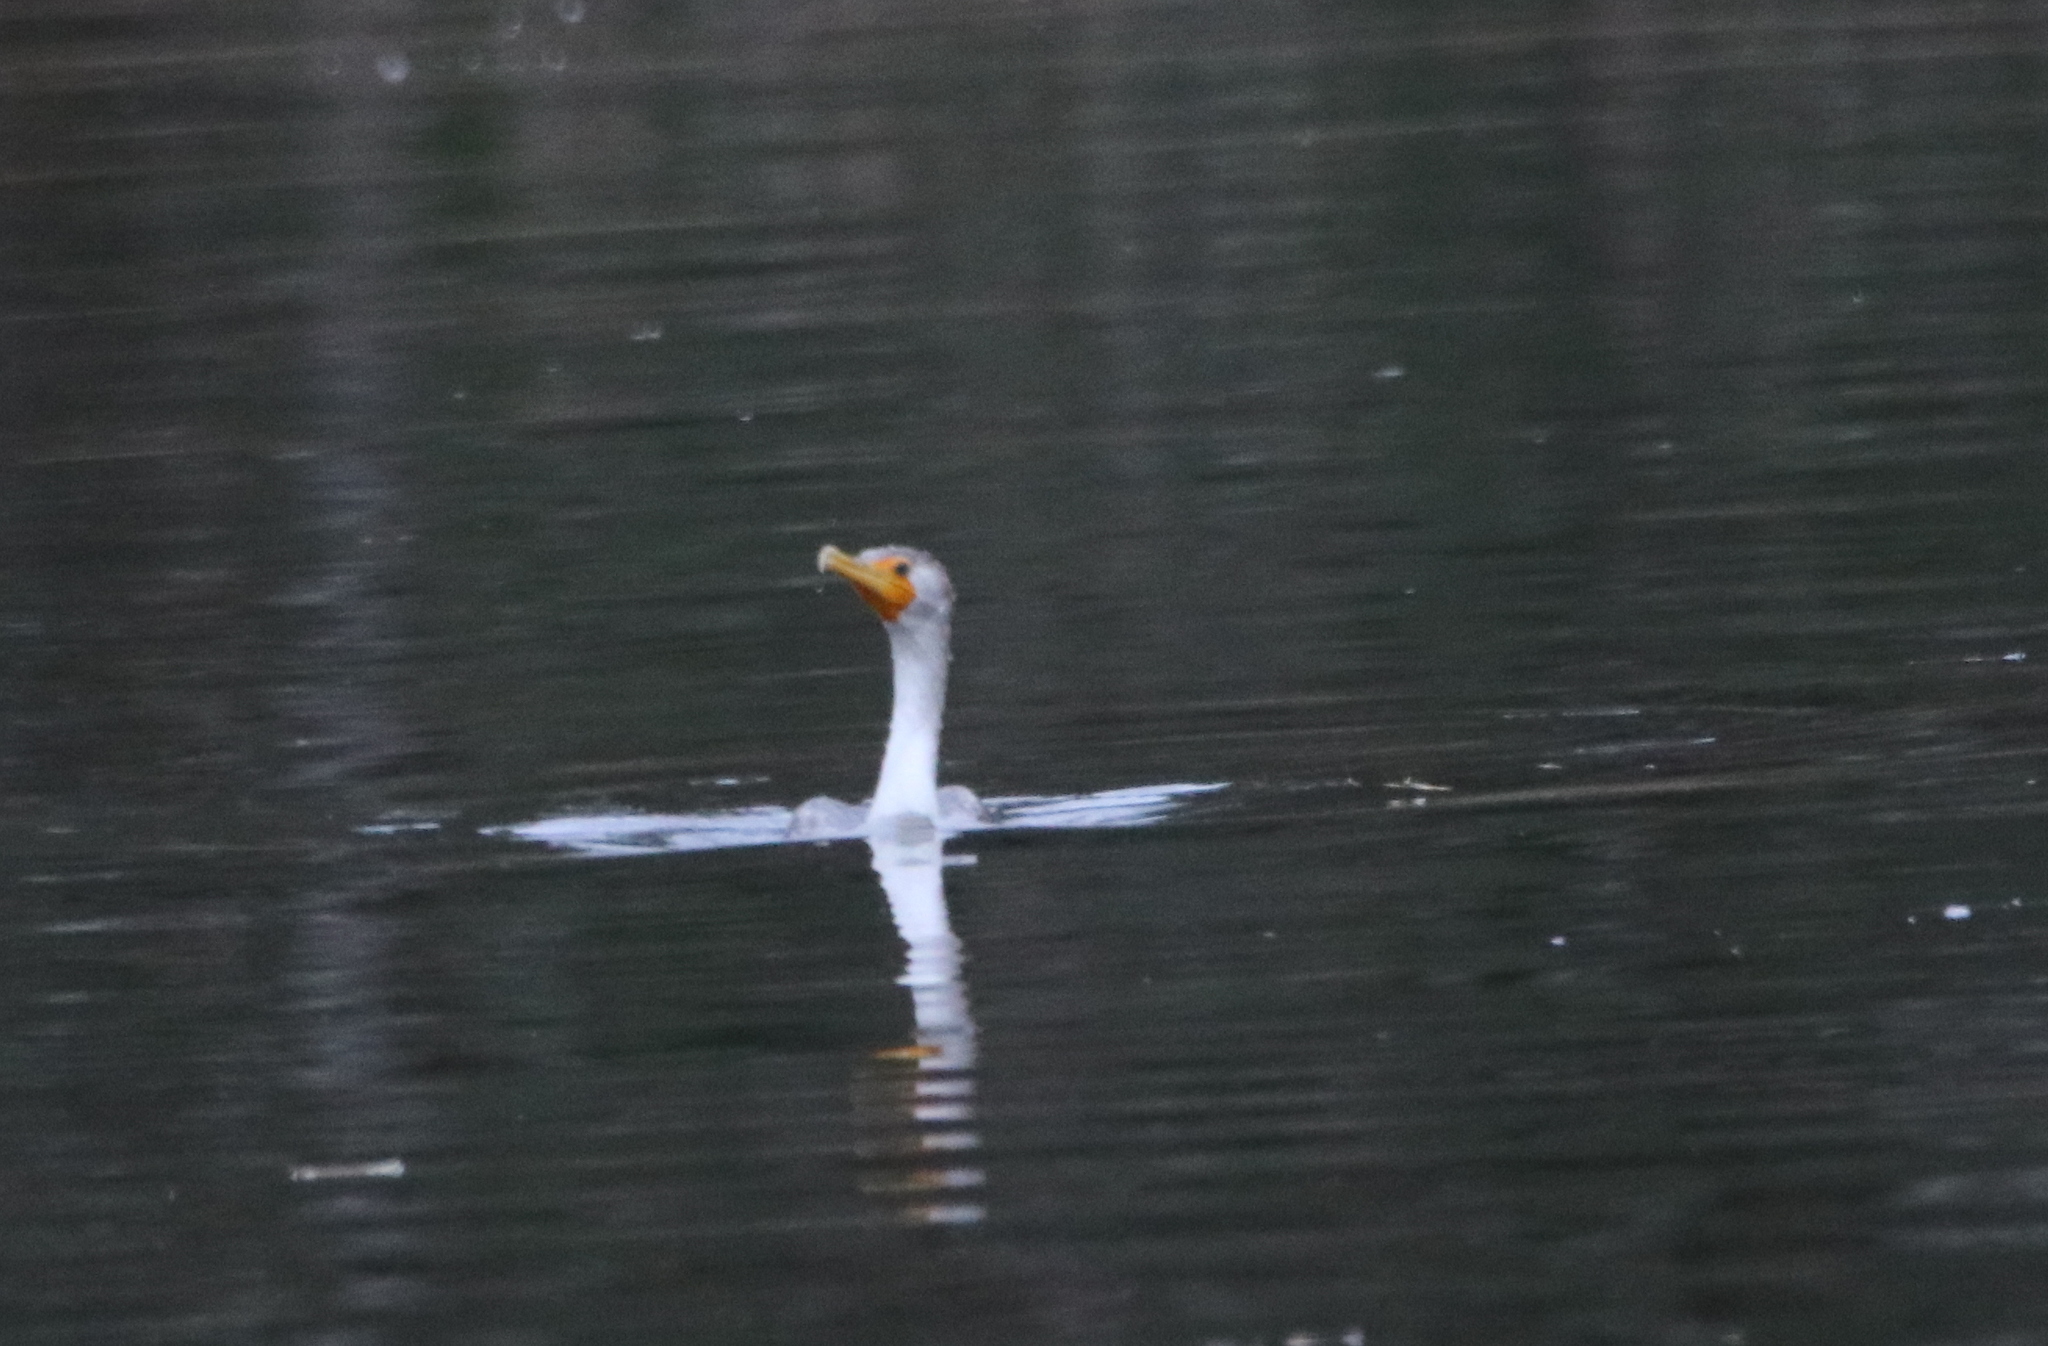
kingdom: Animalia
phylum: Chordata
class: Aves
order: Suliformes
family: Phalacrocoracidae
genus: Phalacrocorax
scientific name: Phalacrocorax auritus
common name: Double-crested cormorant
